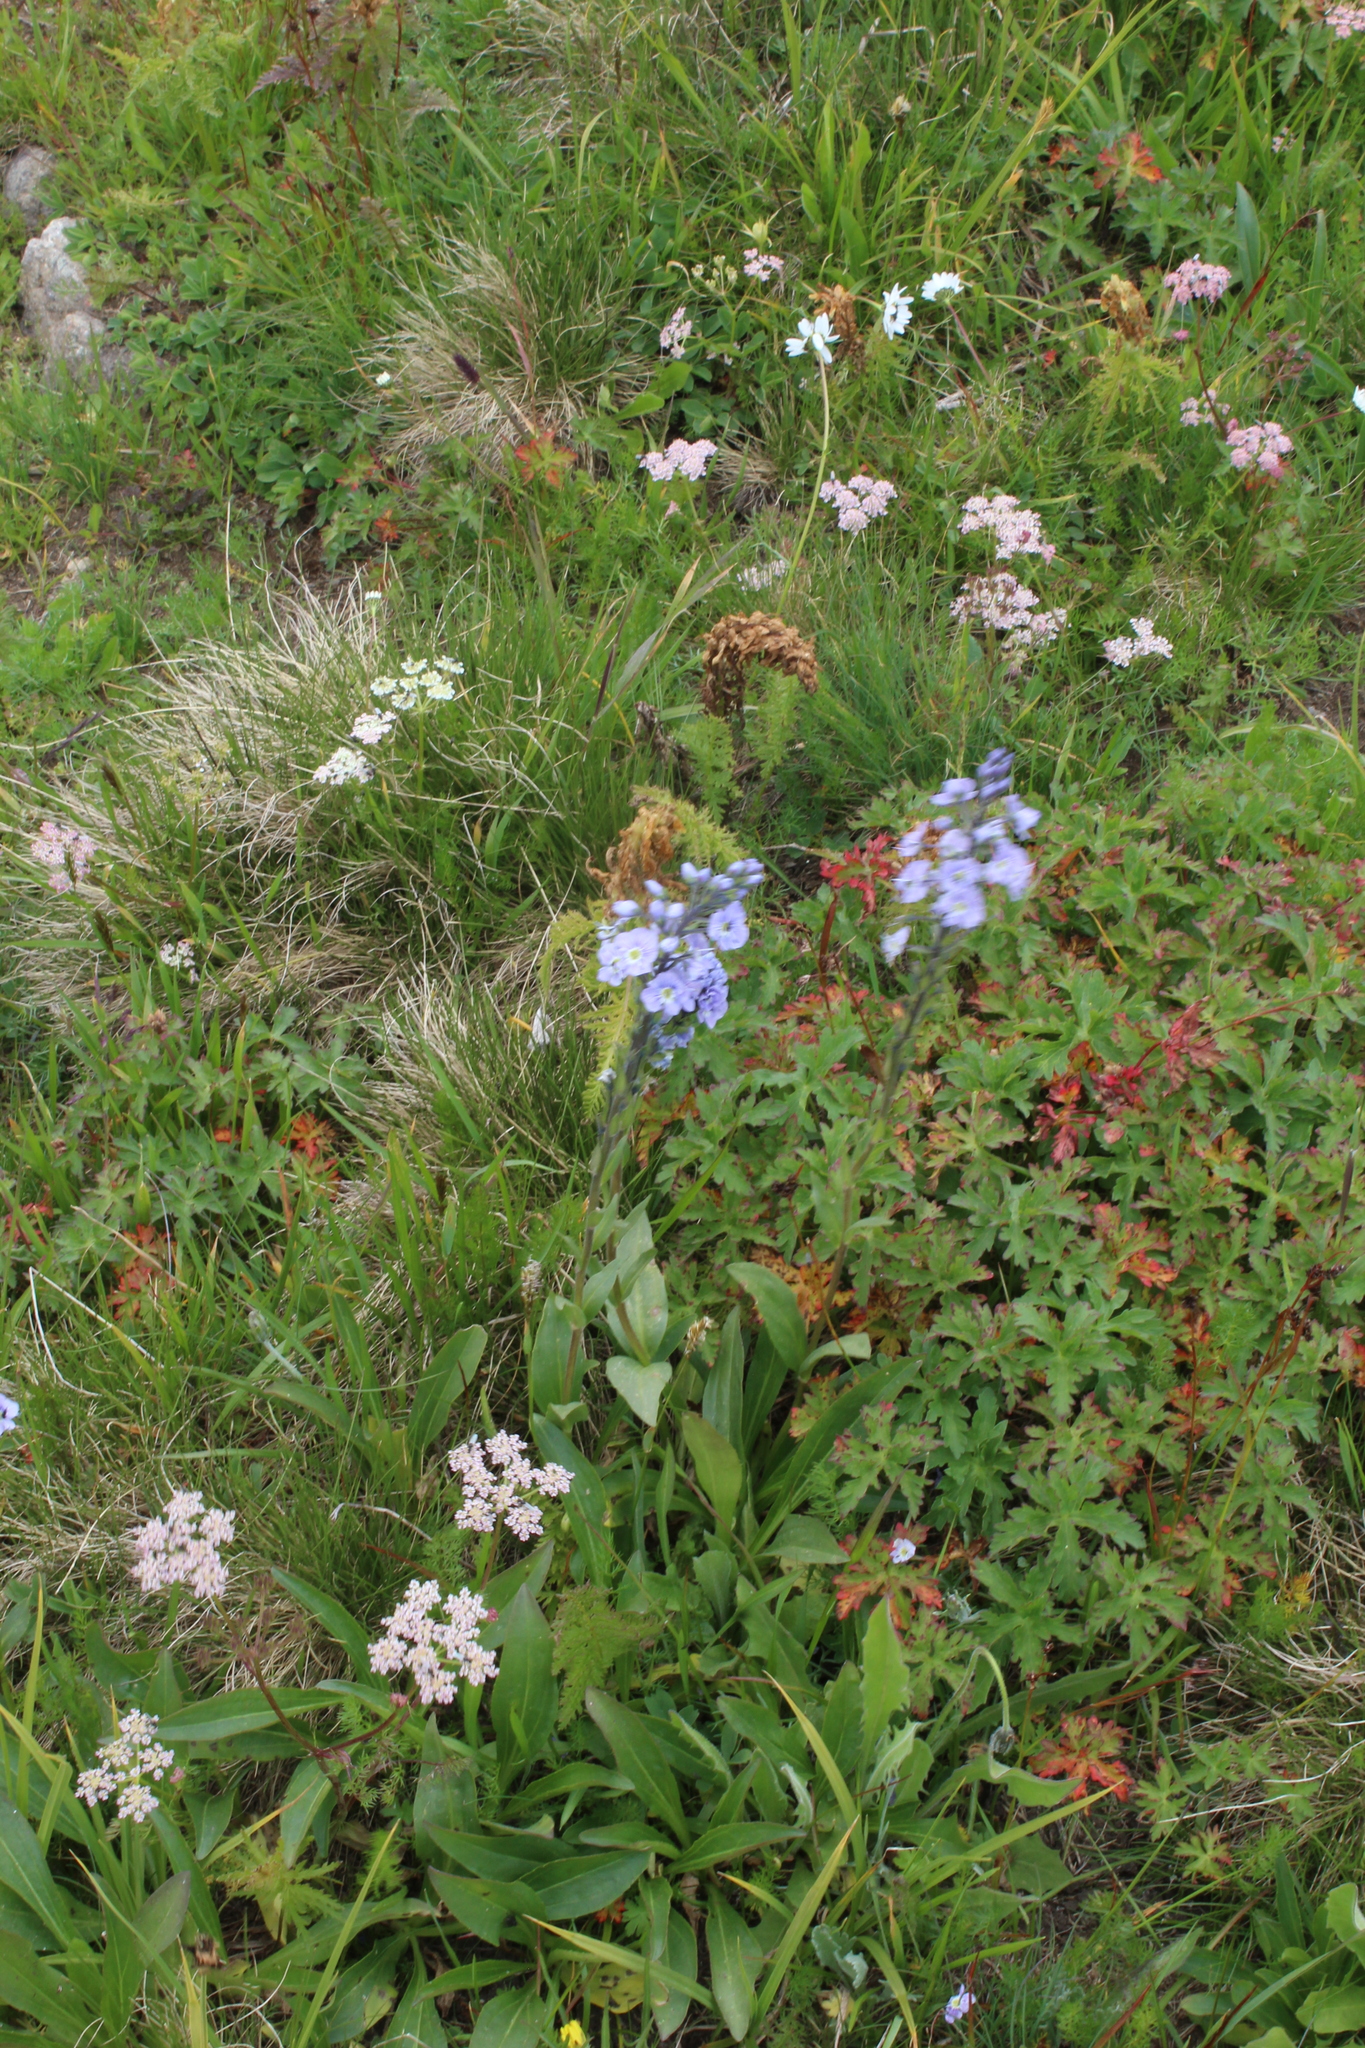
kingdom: Plantae
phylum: Tracheophyta
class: Magnoliopsida
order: Lamiales
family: Plantaginaceae
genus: Veronica
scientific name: Veronica gentianoides
